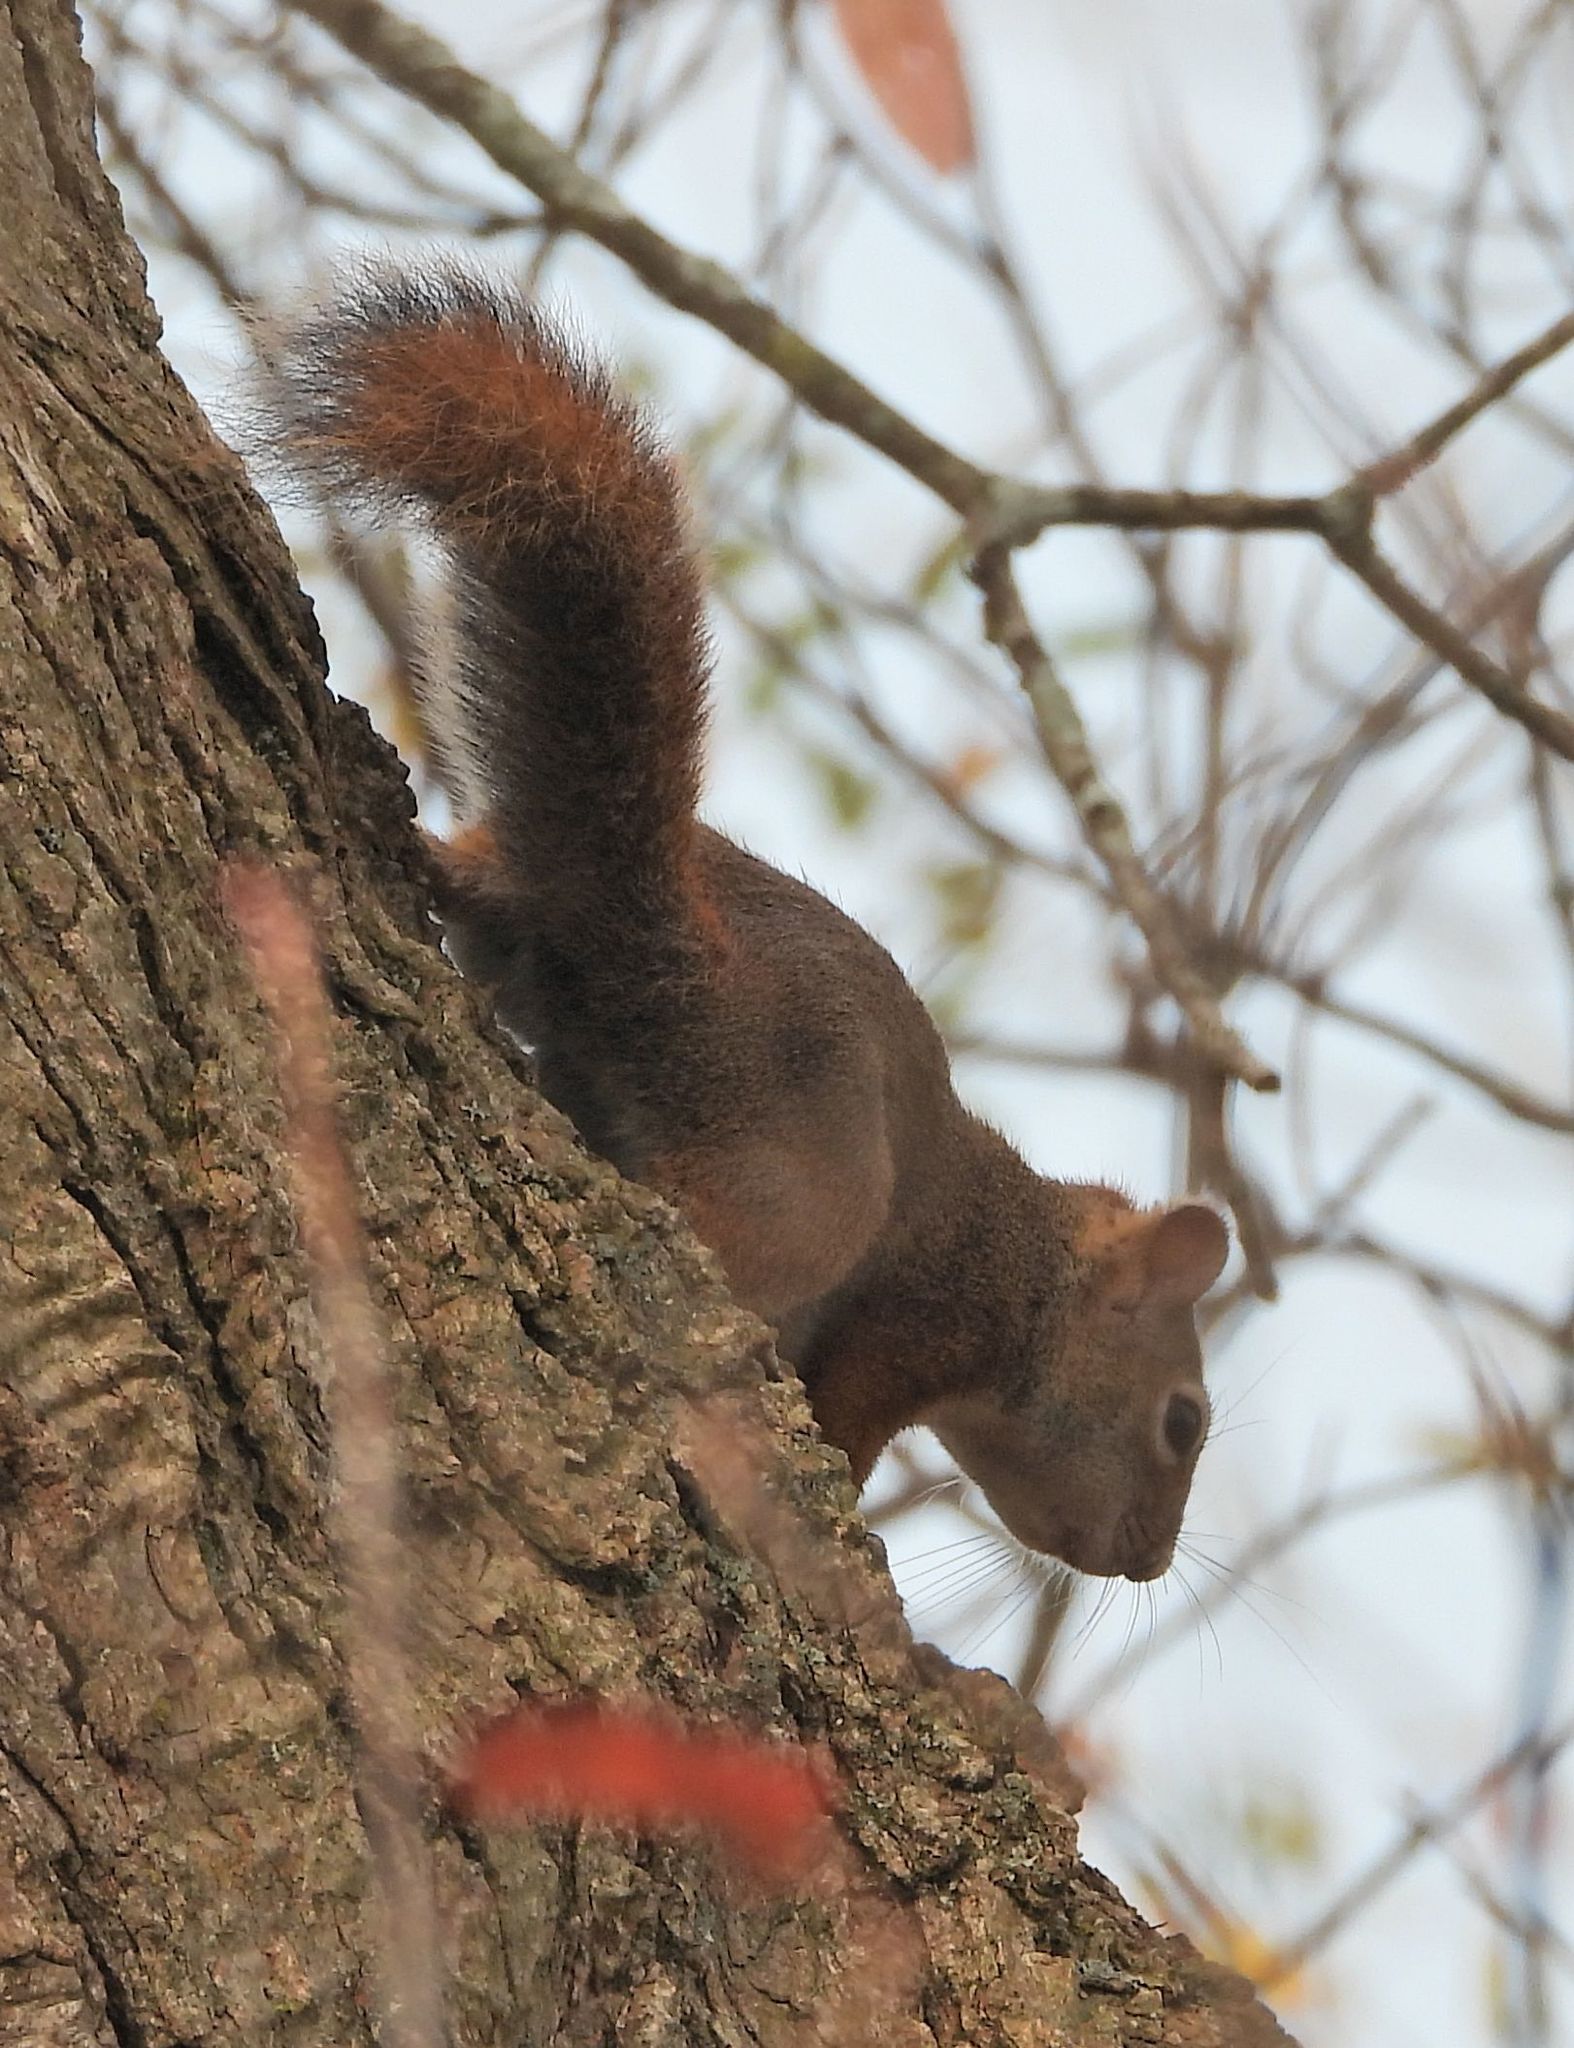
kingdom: Animalia
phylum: Chordata
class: Mammalia
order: Rodentia
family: Sciuridae
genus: Tamiasciurus
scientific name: Tamiasciurus hudsonicus
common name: Red squirrel
